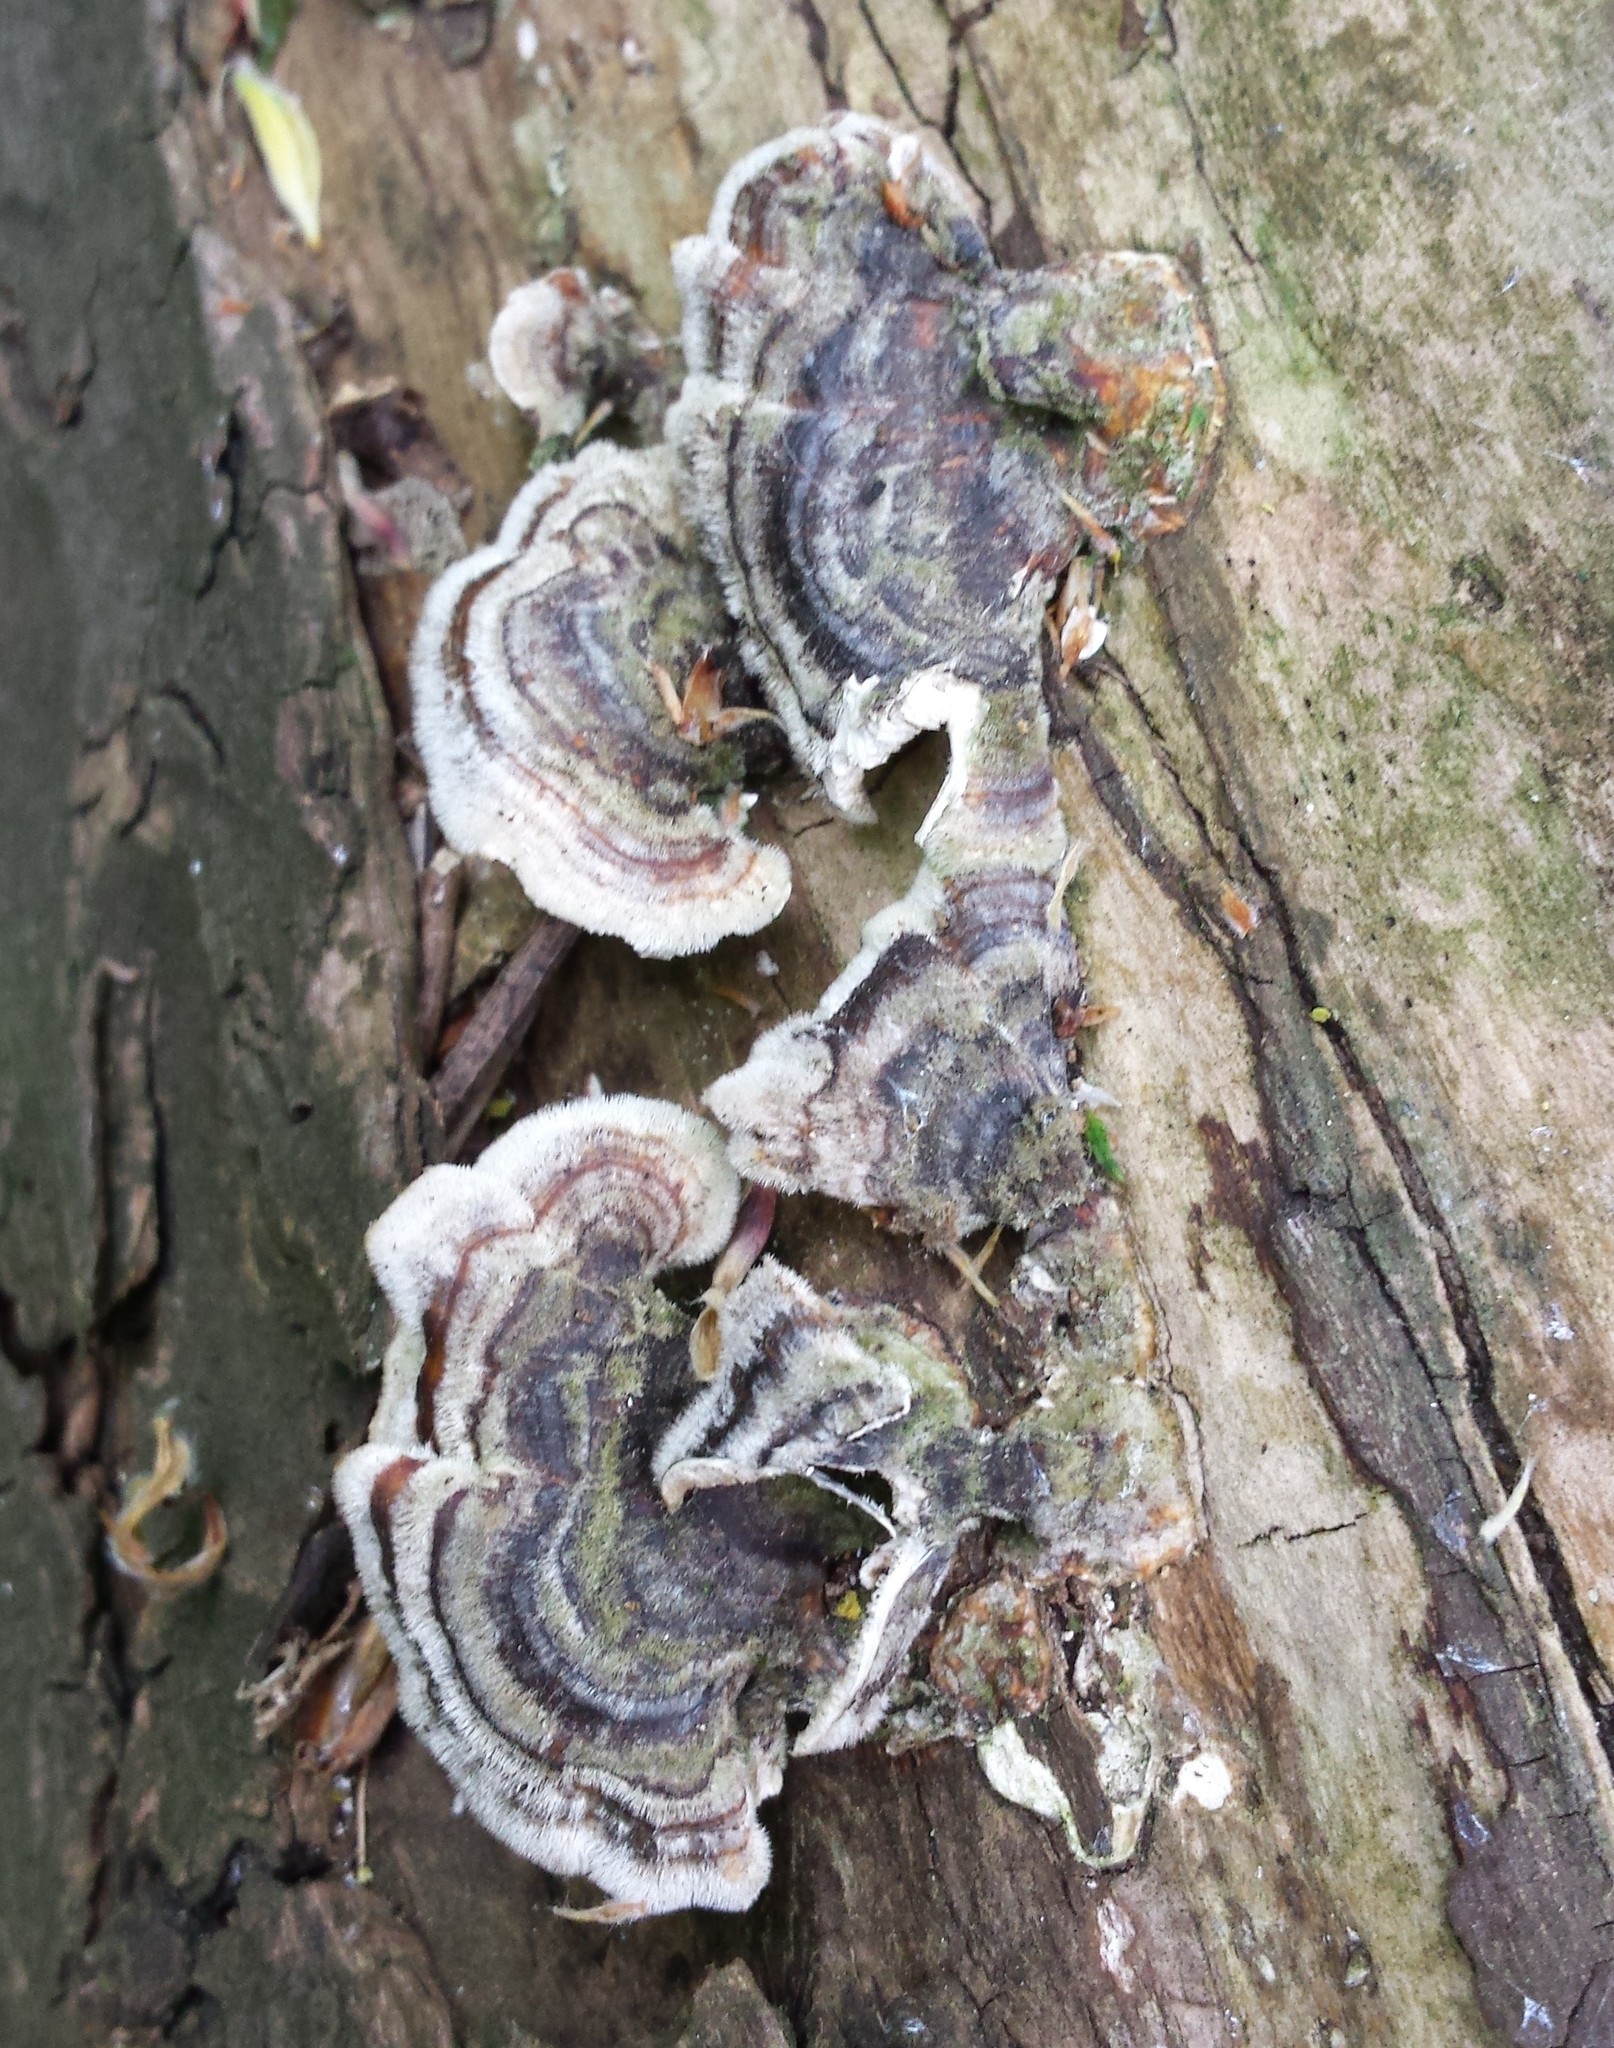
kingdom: Fungi
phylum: Basidiomycota
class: Agaricomycetes
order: Polyporales
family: Polyporaceae
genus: Trametes
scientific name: Trametes versicolor
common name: Turkeytail
